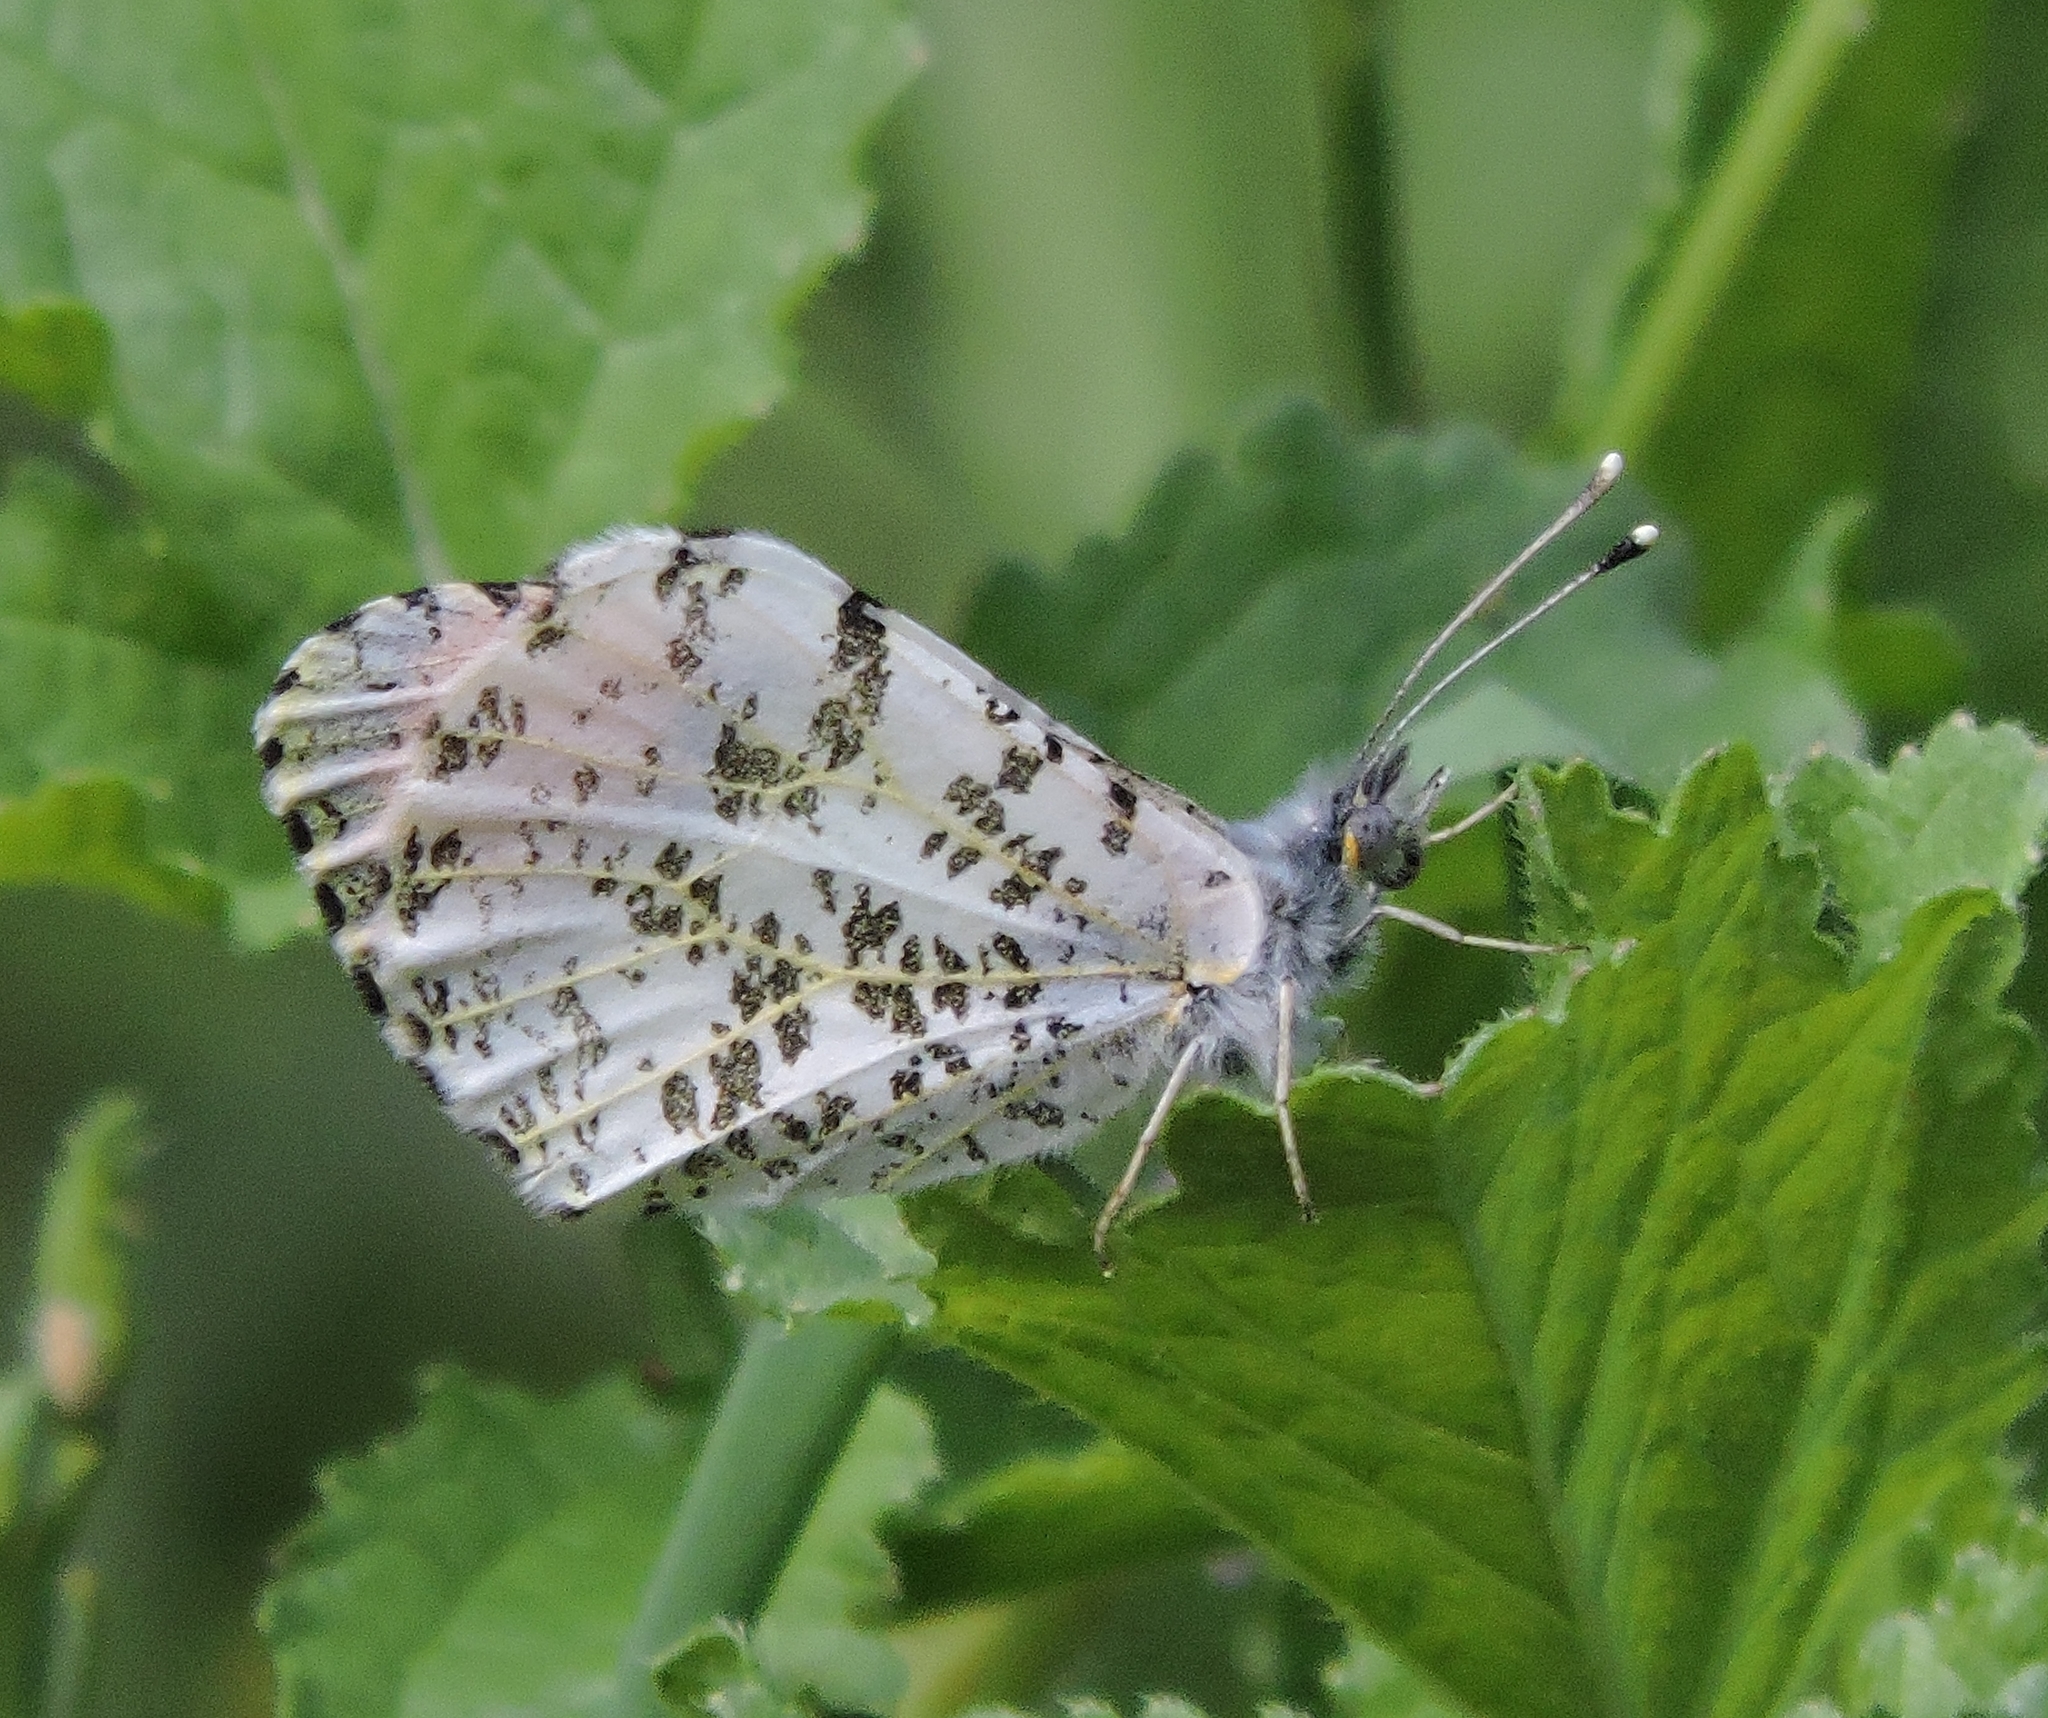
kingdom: Animalia
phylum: Arthropoda
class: Insecta
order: Lepidoptera
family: Pieridae
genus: Anthocharis
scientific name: Anthocharis sara
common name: Sara's orangetip
